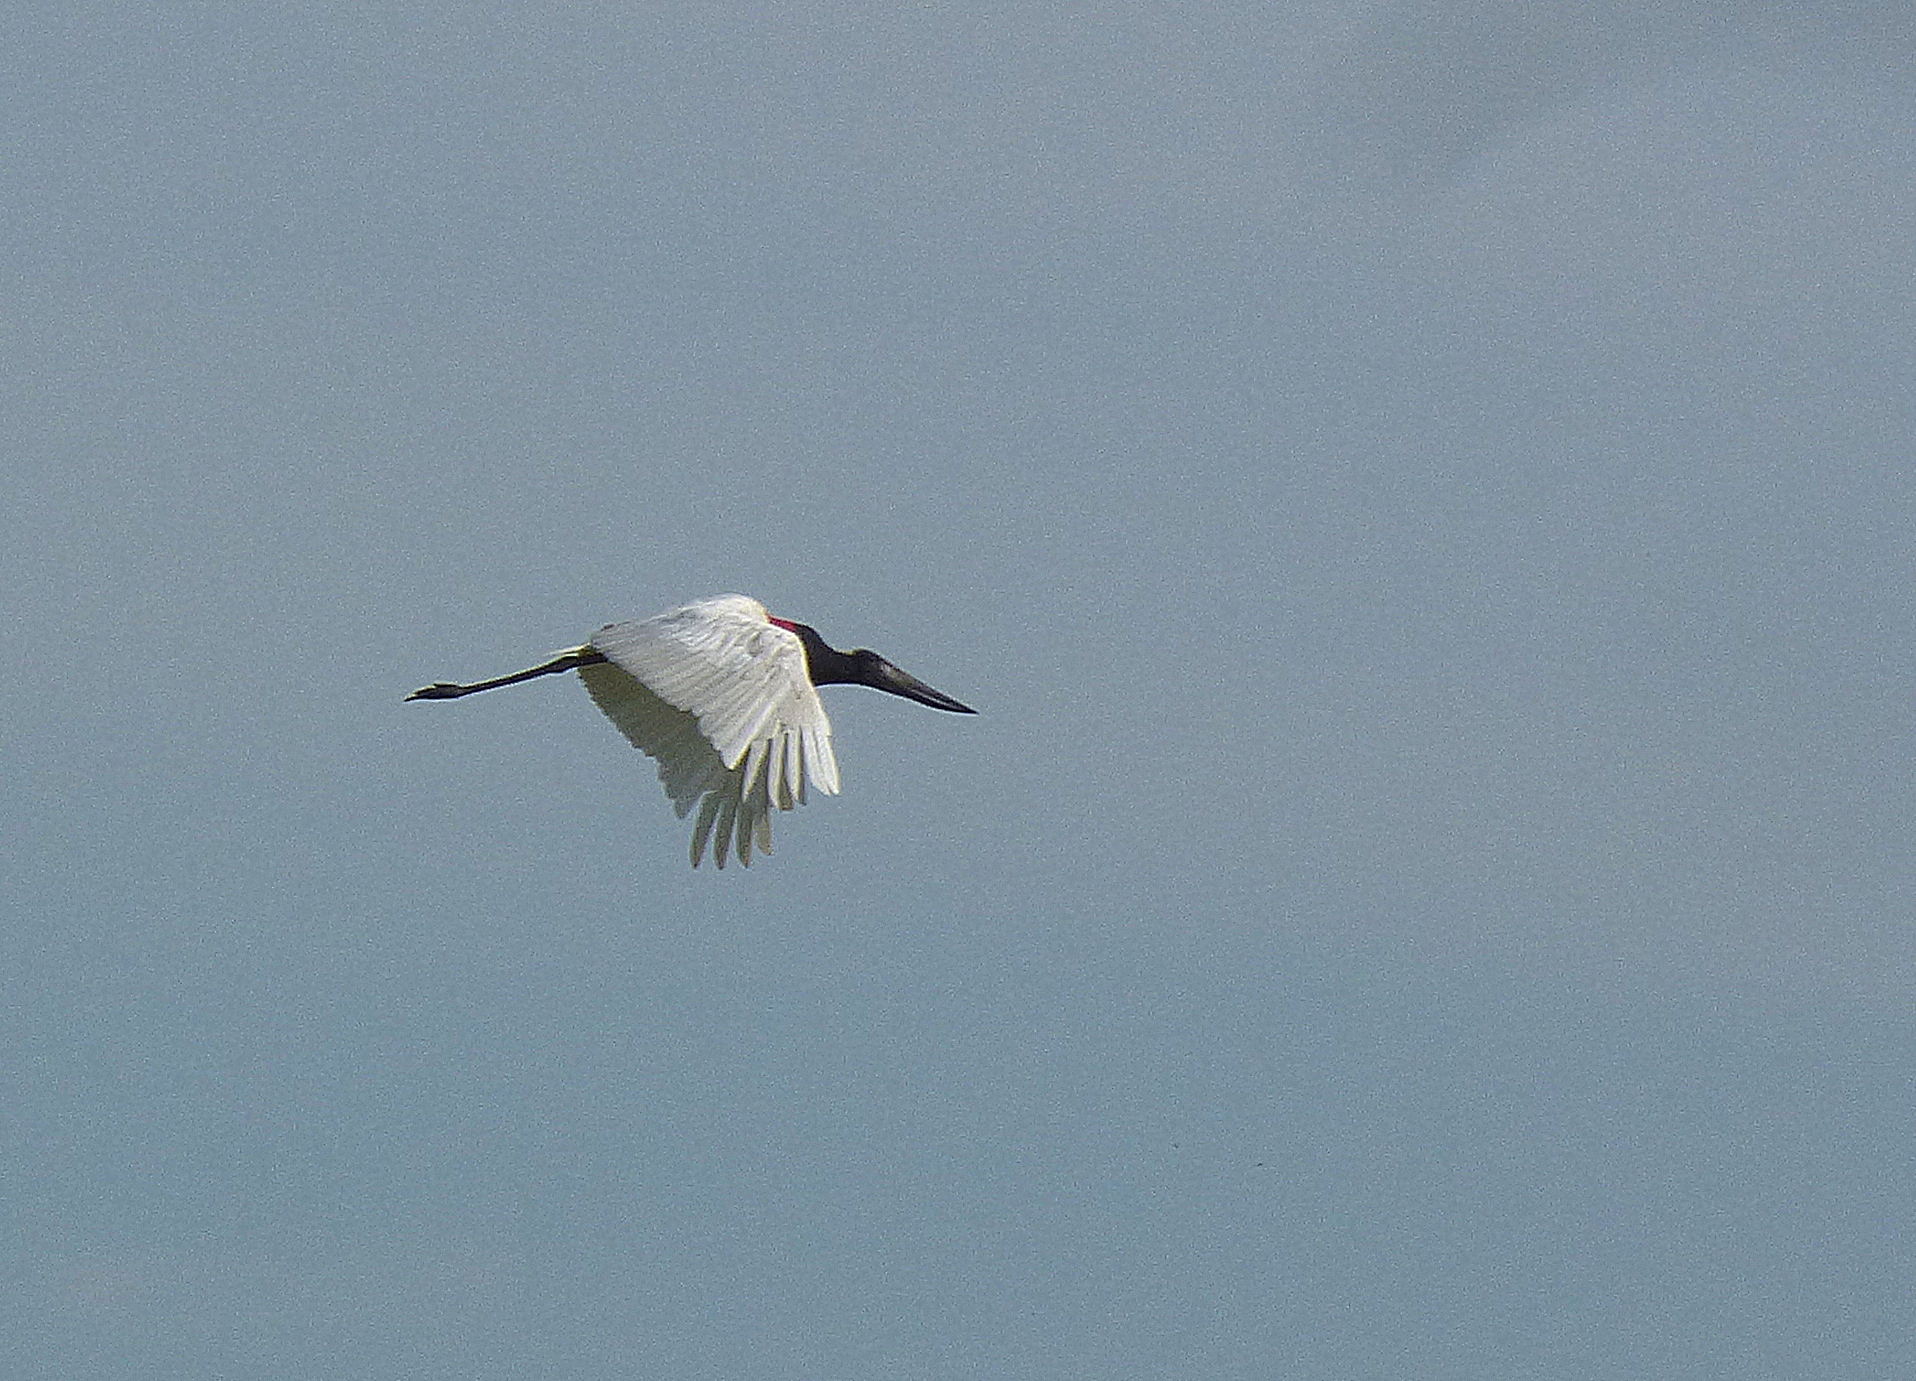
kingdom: Animalia
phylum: Chordata
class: Aves
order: Ciconiiformes
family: Ciconiidae
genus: Jabiru
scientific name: Jabiru mycteria
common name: Jabiru
